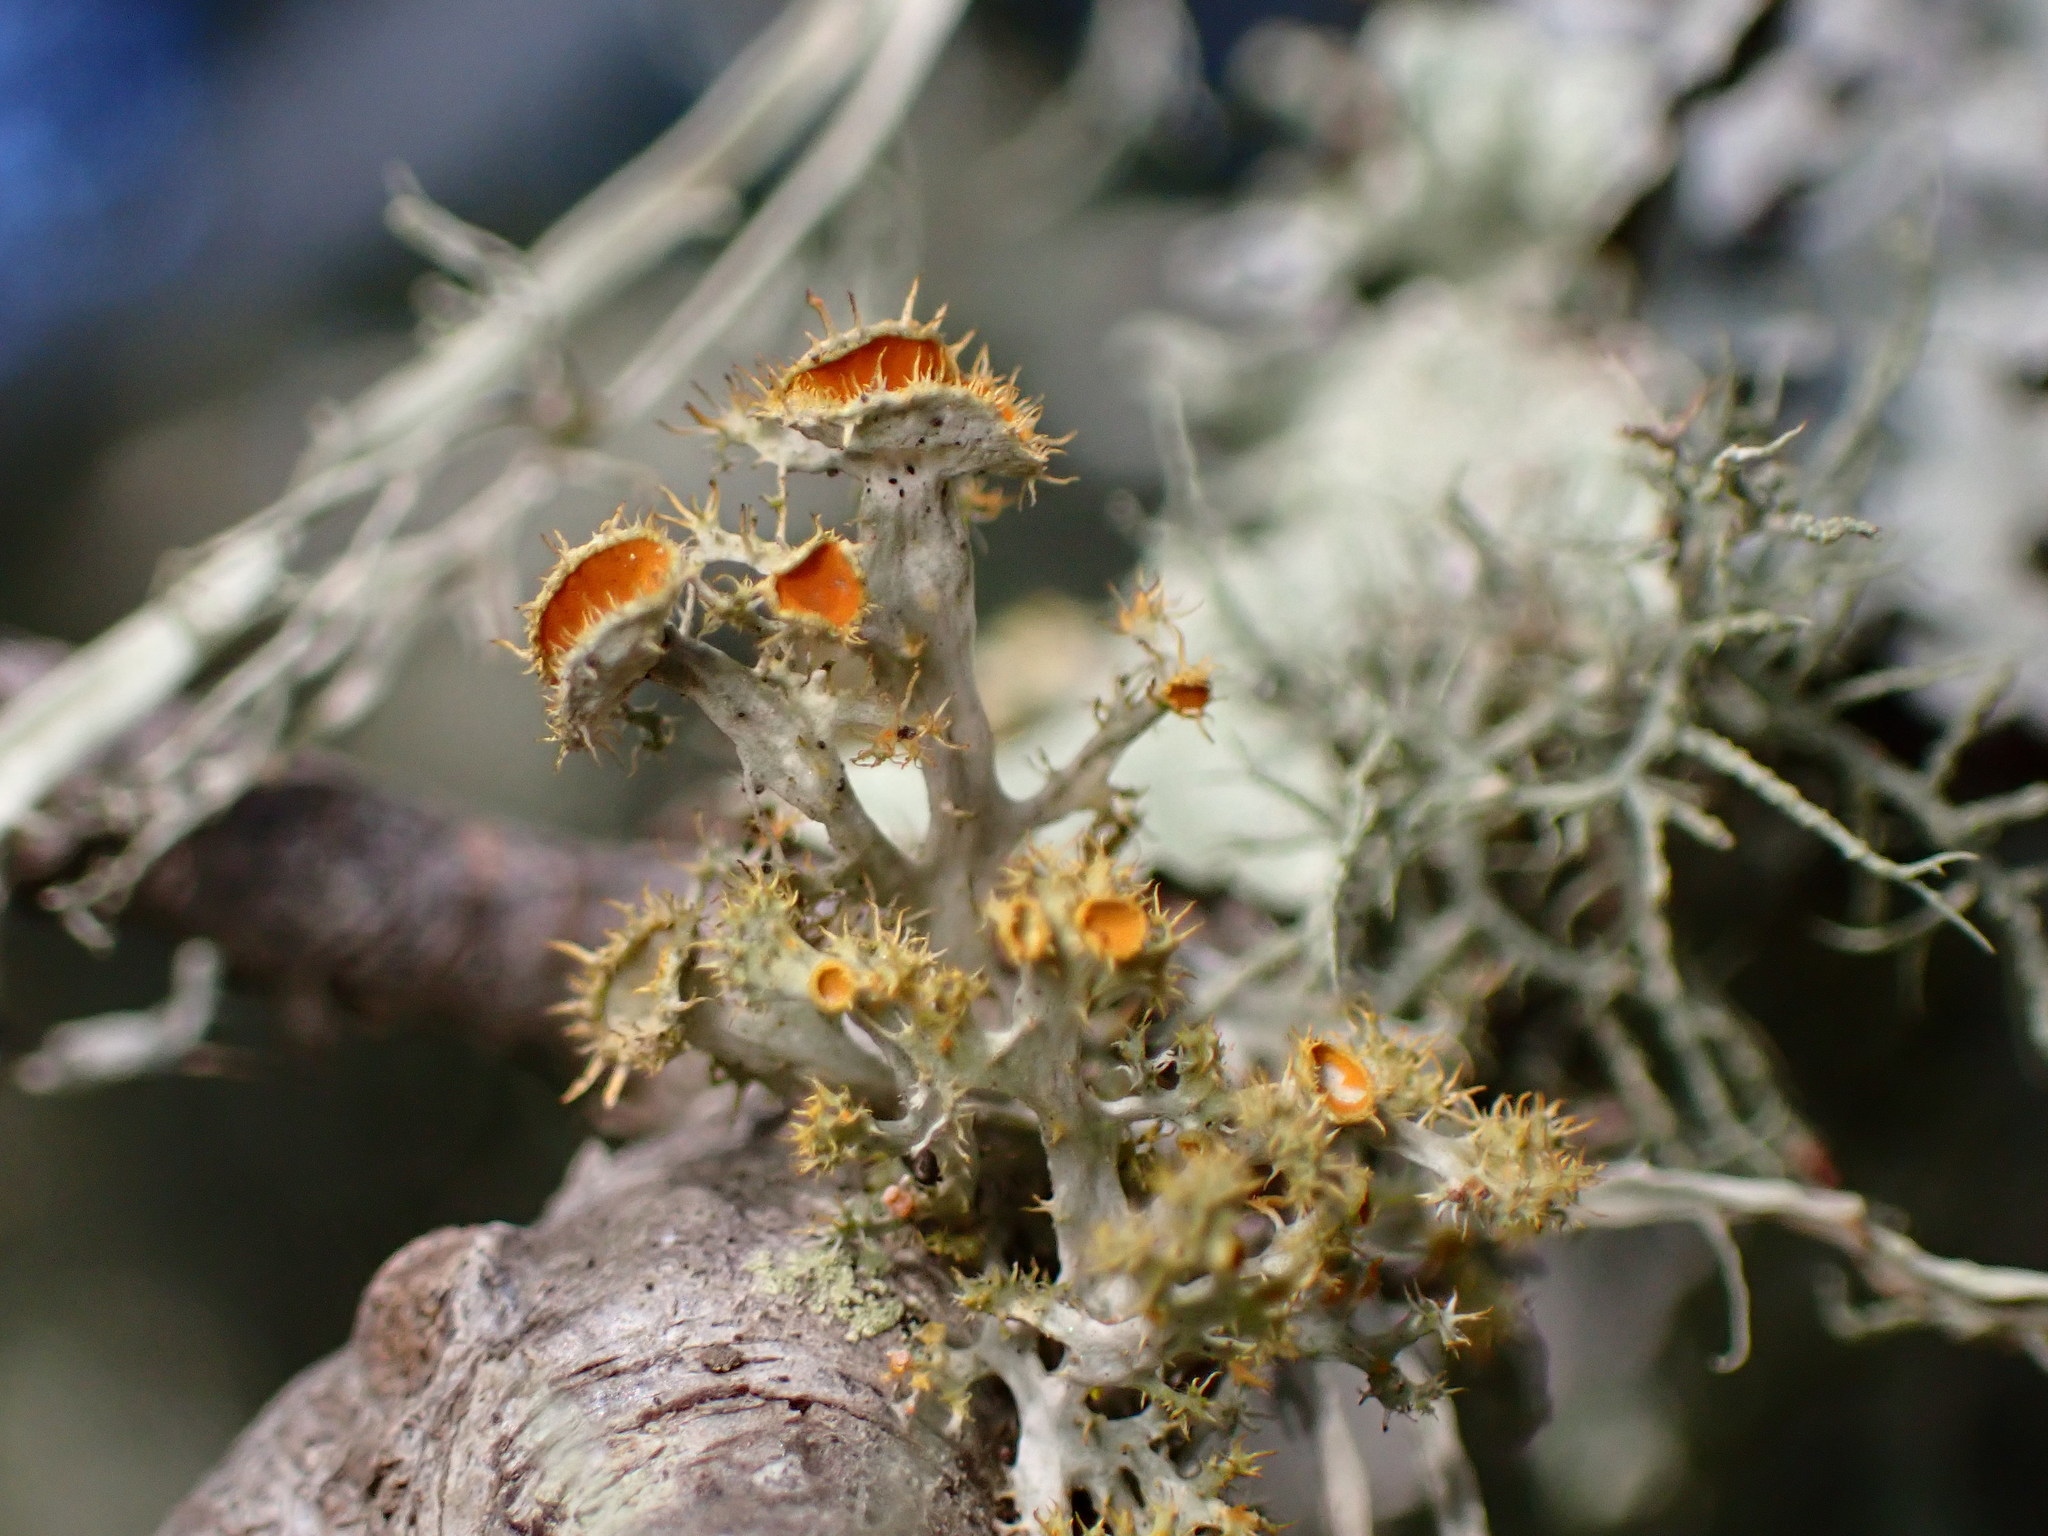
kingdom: Fungi
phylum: Ascomycota
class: Lecanoromycetes
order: Teloschistales
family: Teloschistaceae
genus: Niorma
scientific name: Niorma chrysophthalma
